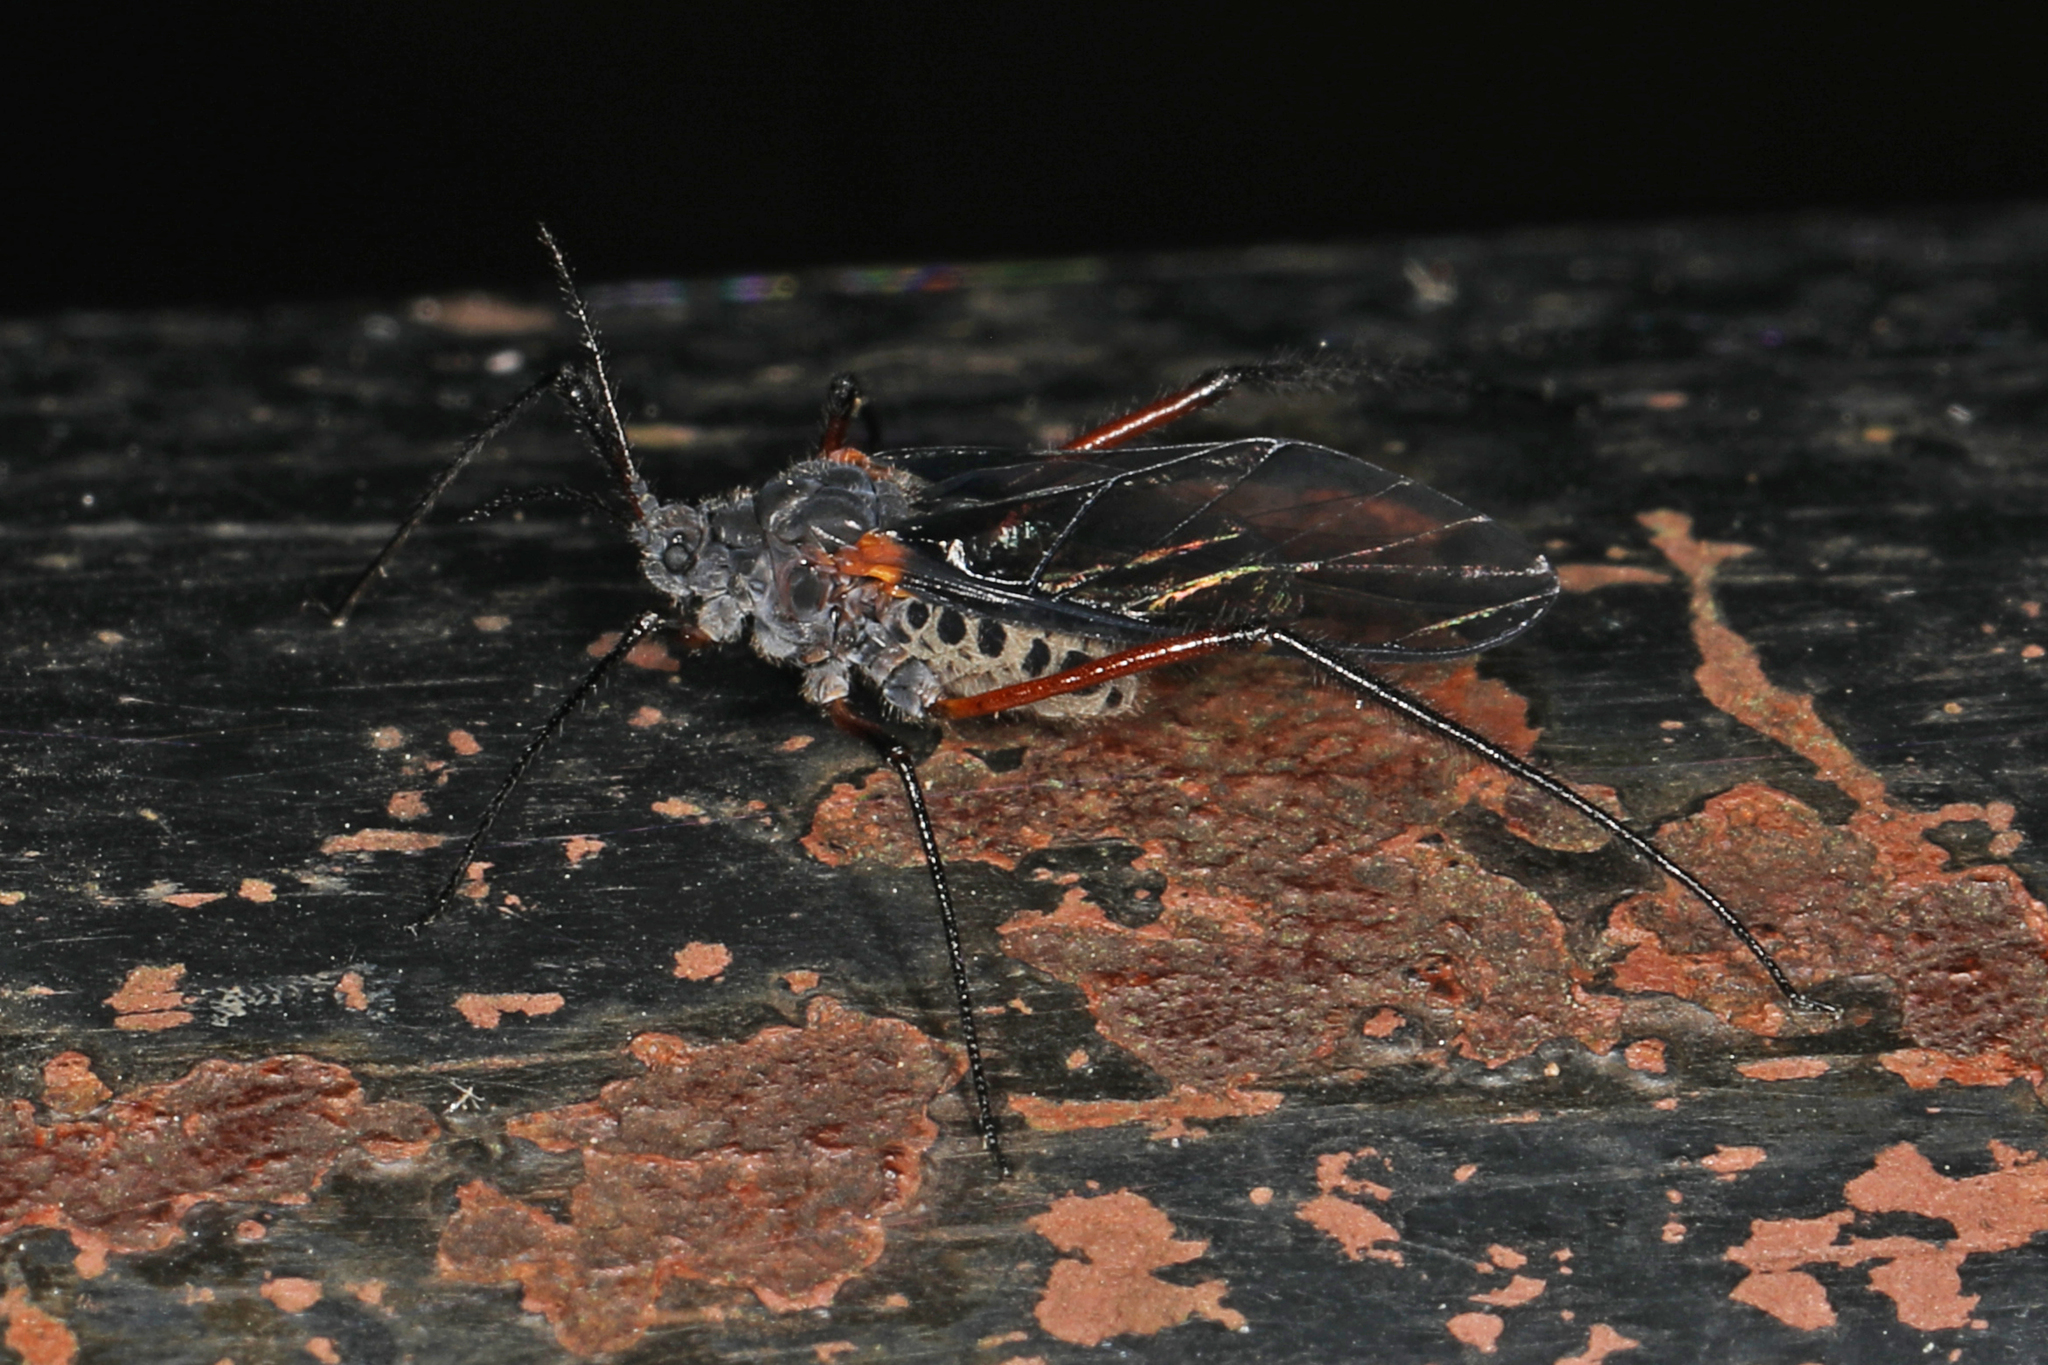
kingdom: Animalia
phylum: Arthropoda
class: Insecta
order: Hemiptera
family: Aphididae
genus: Longistigma
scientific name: Longistigma caryae
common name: Giant bark aphid
